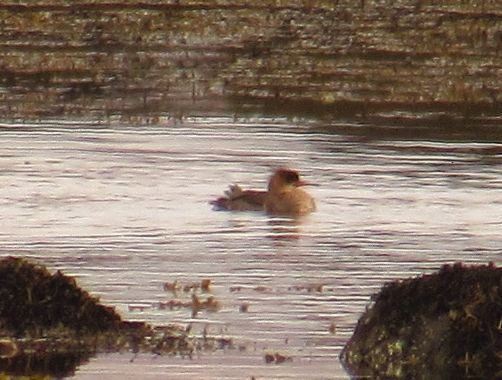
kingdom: Animalia
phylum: Chordata
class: Aves
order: Anseriformes
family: Anatidae
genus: Mergus
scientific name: Mergus serrator
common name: Red-breasted merganser
